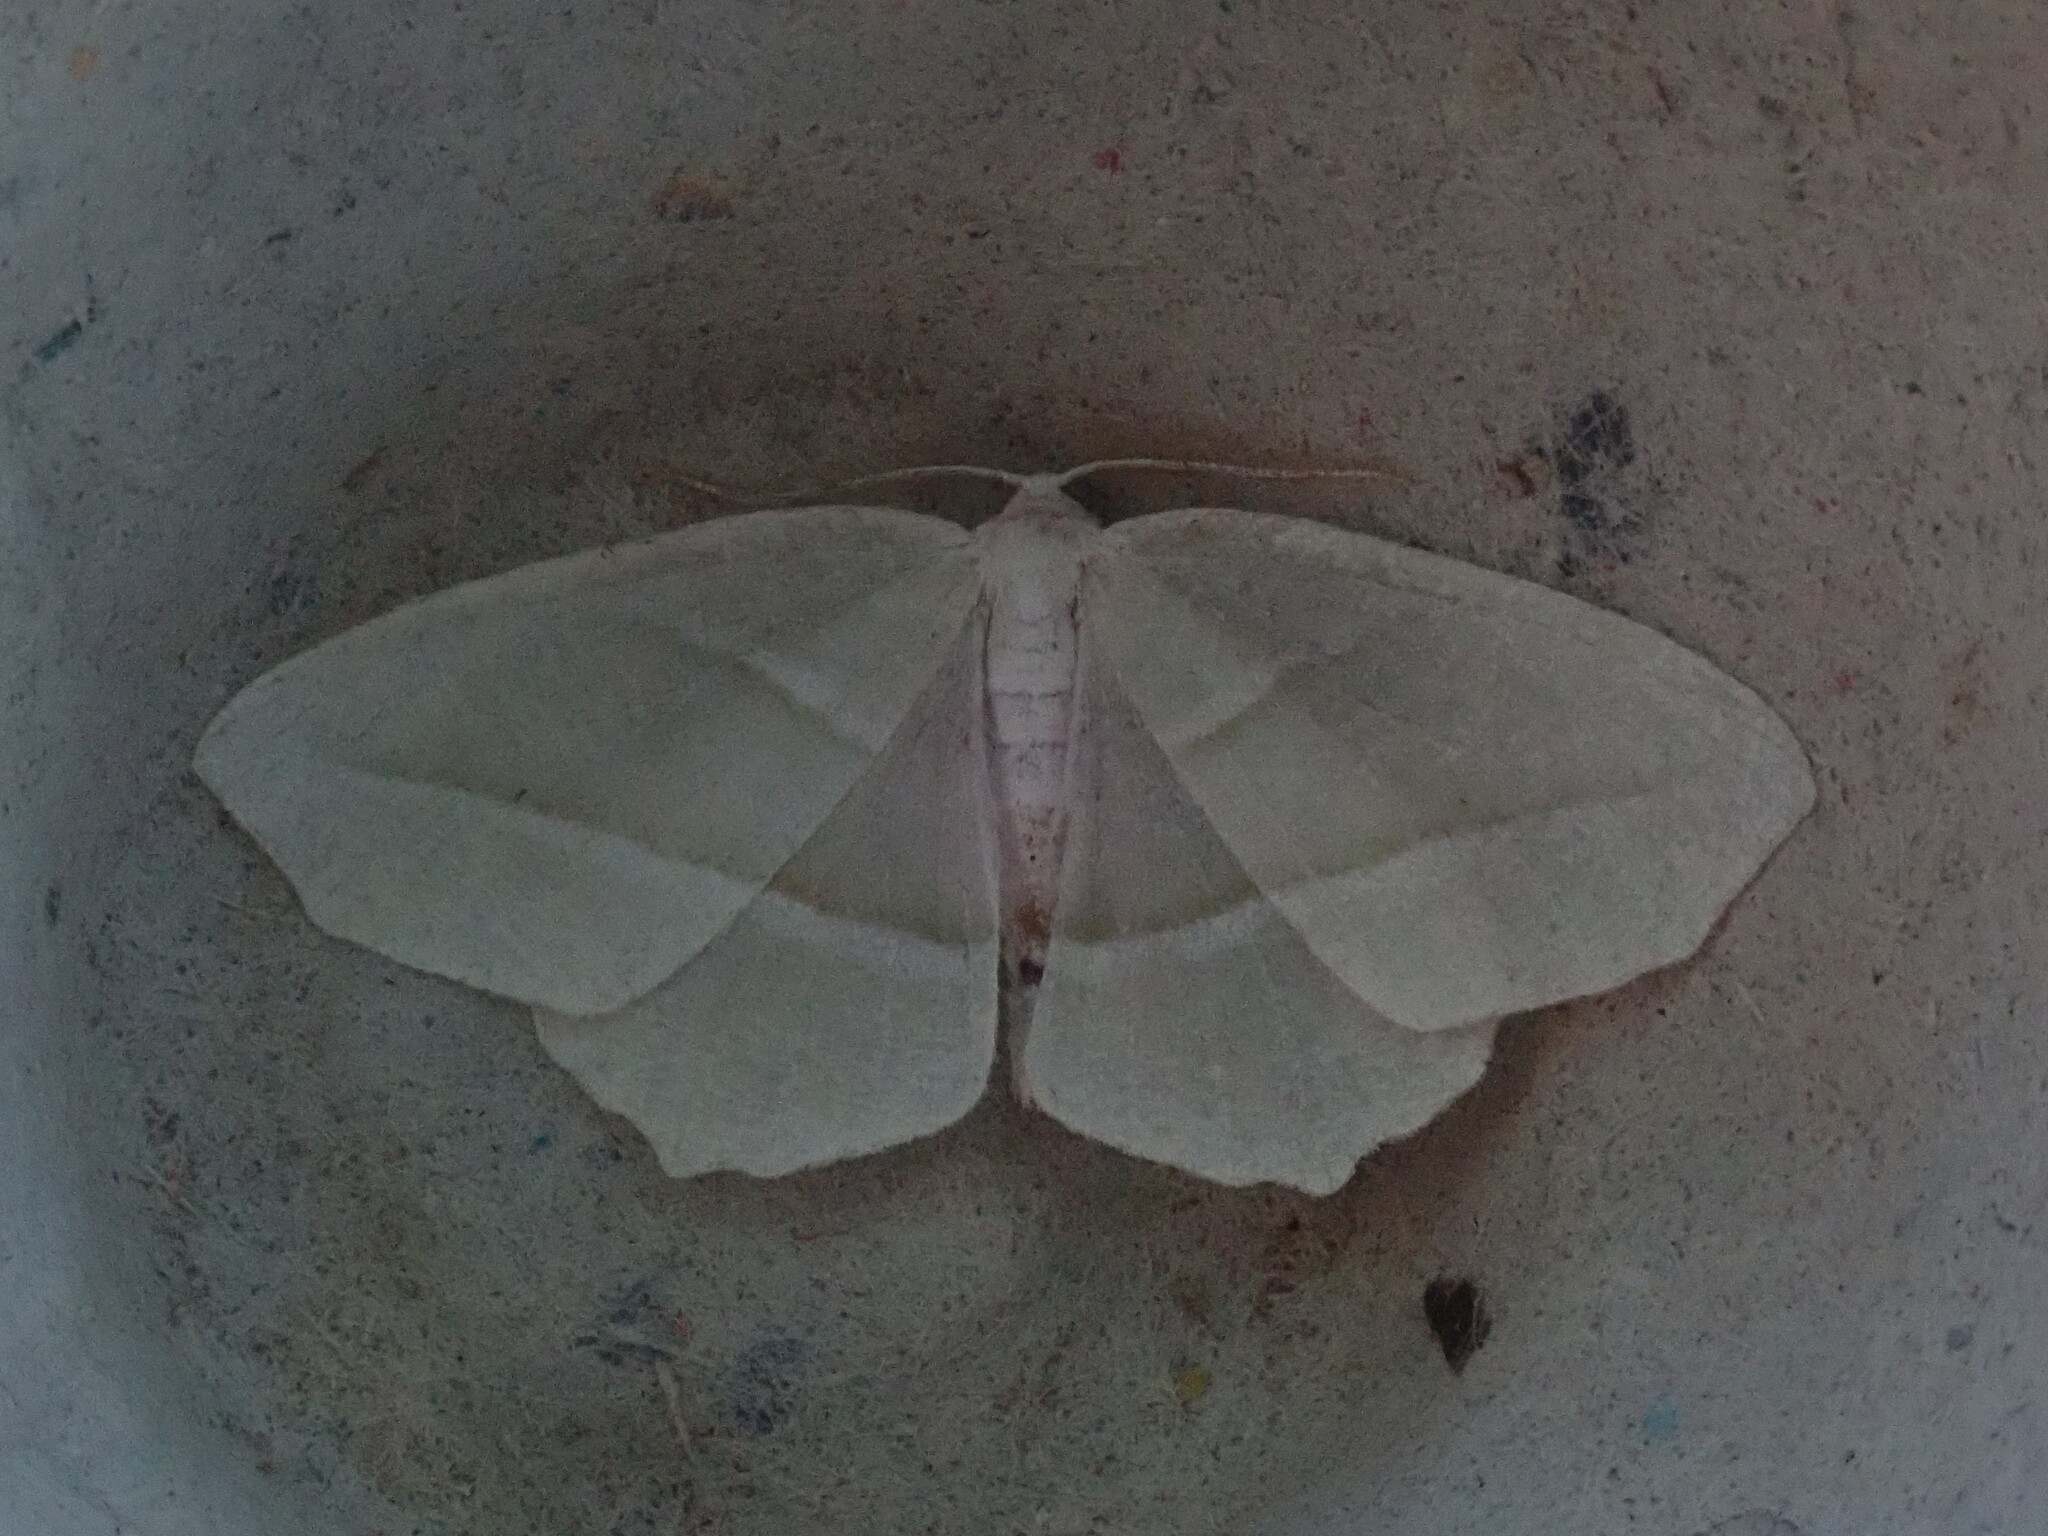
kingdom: Animalia
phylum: Arthropoda
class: Insecta
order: Lepidoptera
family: Geometridae
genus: Campaea
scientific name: Campaea perlata
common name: Fringed looper
